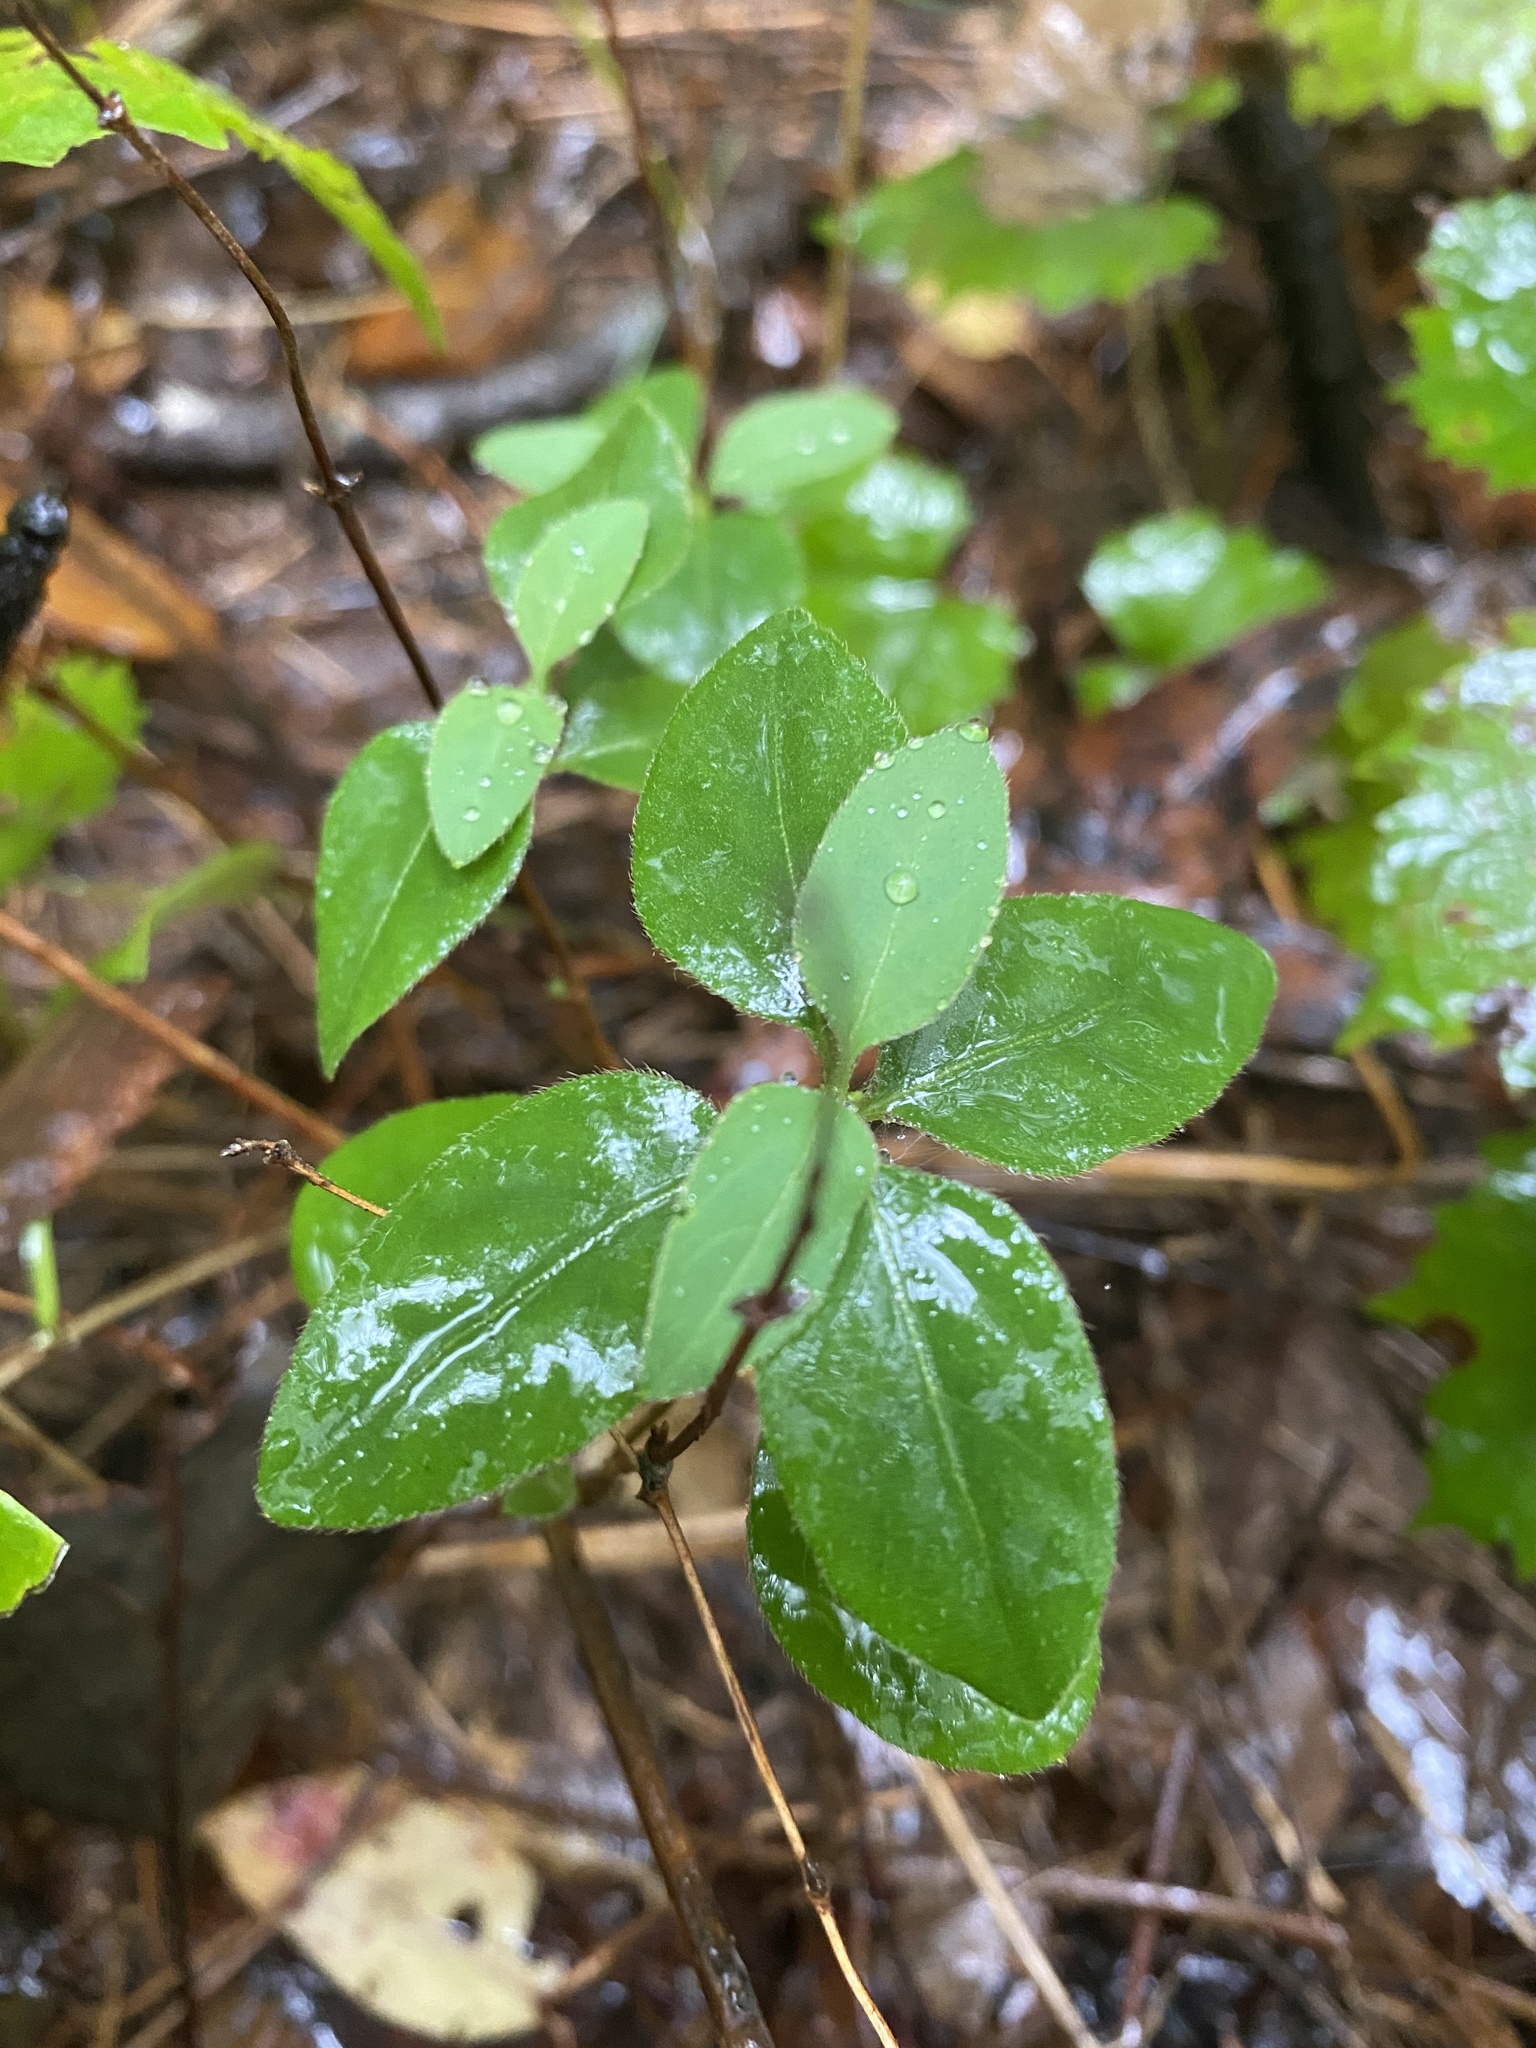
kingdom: Plantae
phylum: Tracheophyta
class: Magnoliopsida
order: Dipsacales
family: Caprifoliaceae
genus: Lonicera
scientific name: Lonicera japonica
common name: Japanese honeysuckle
